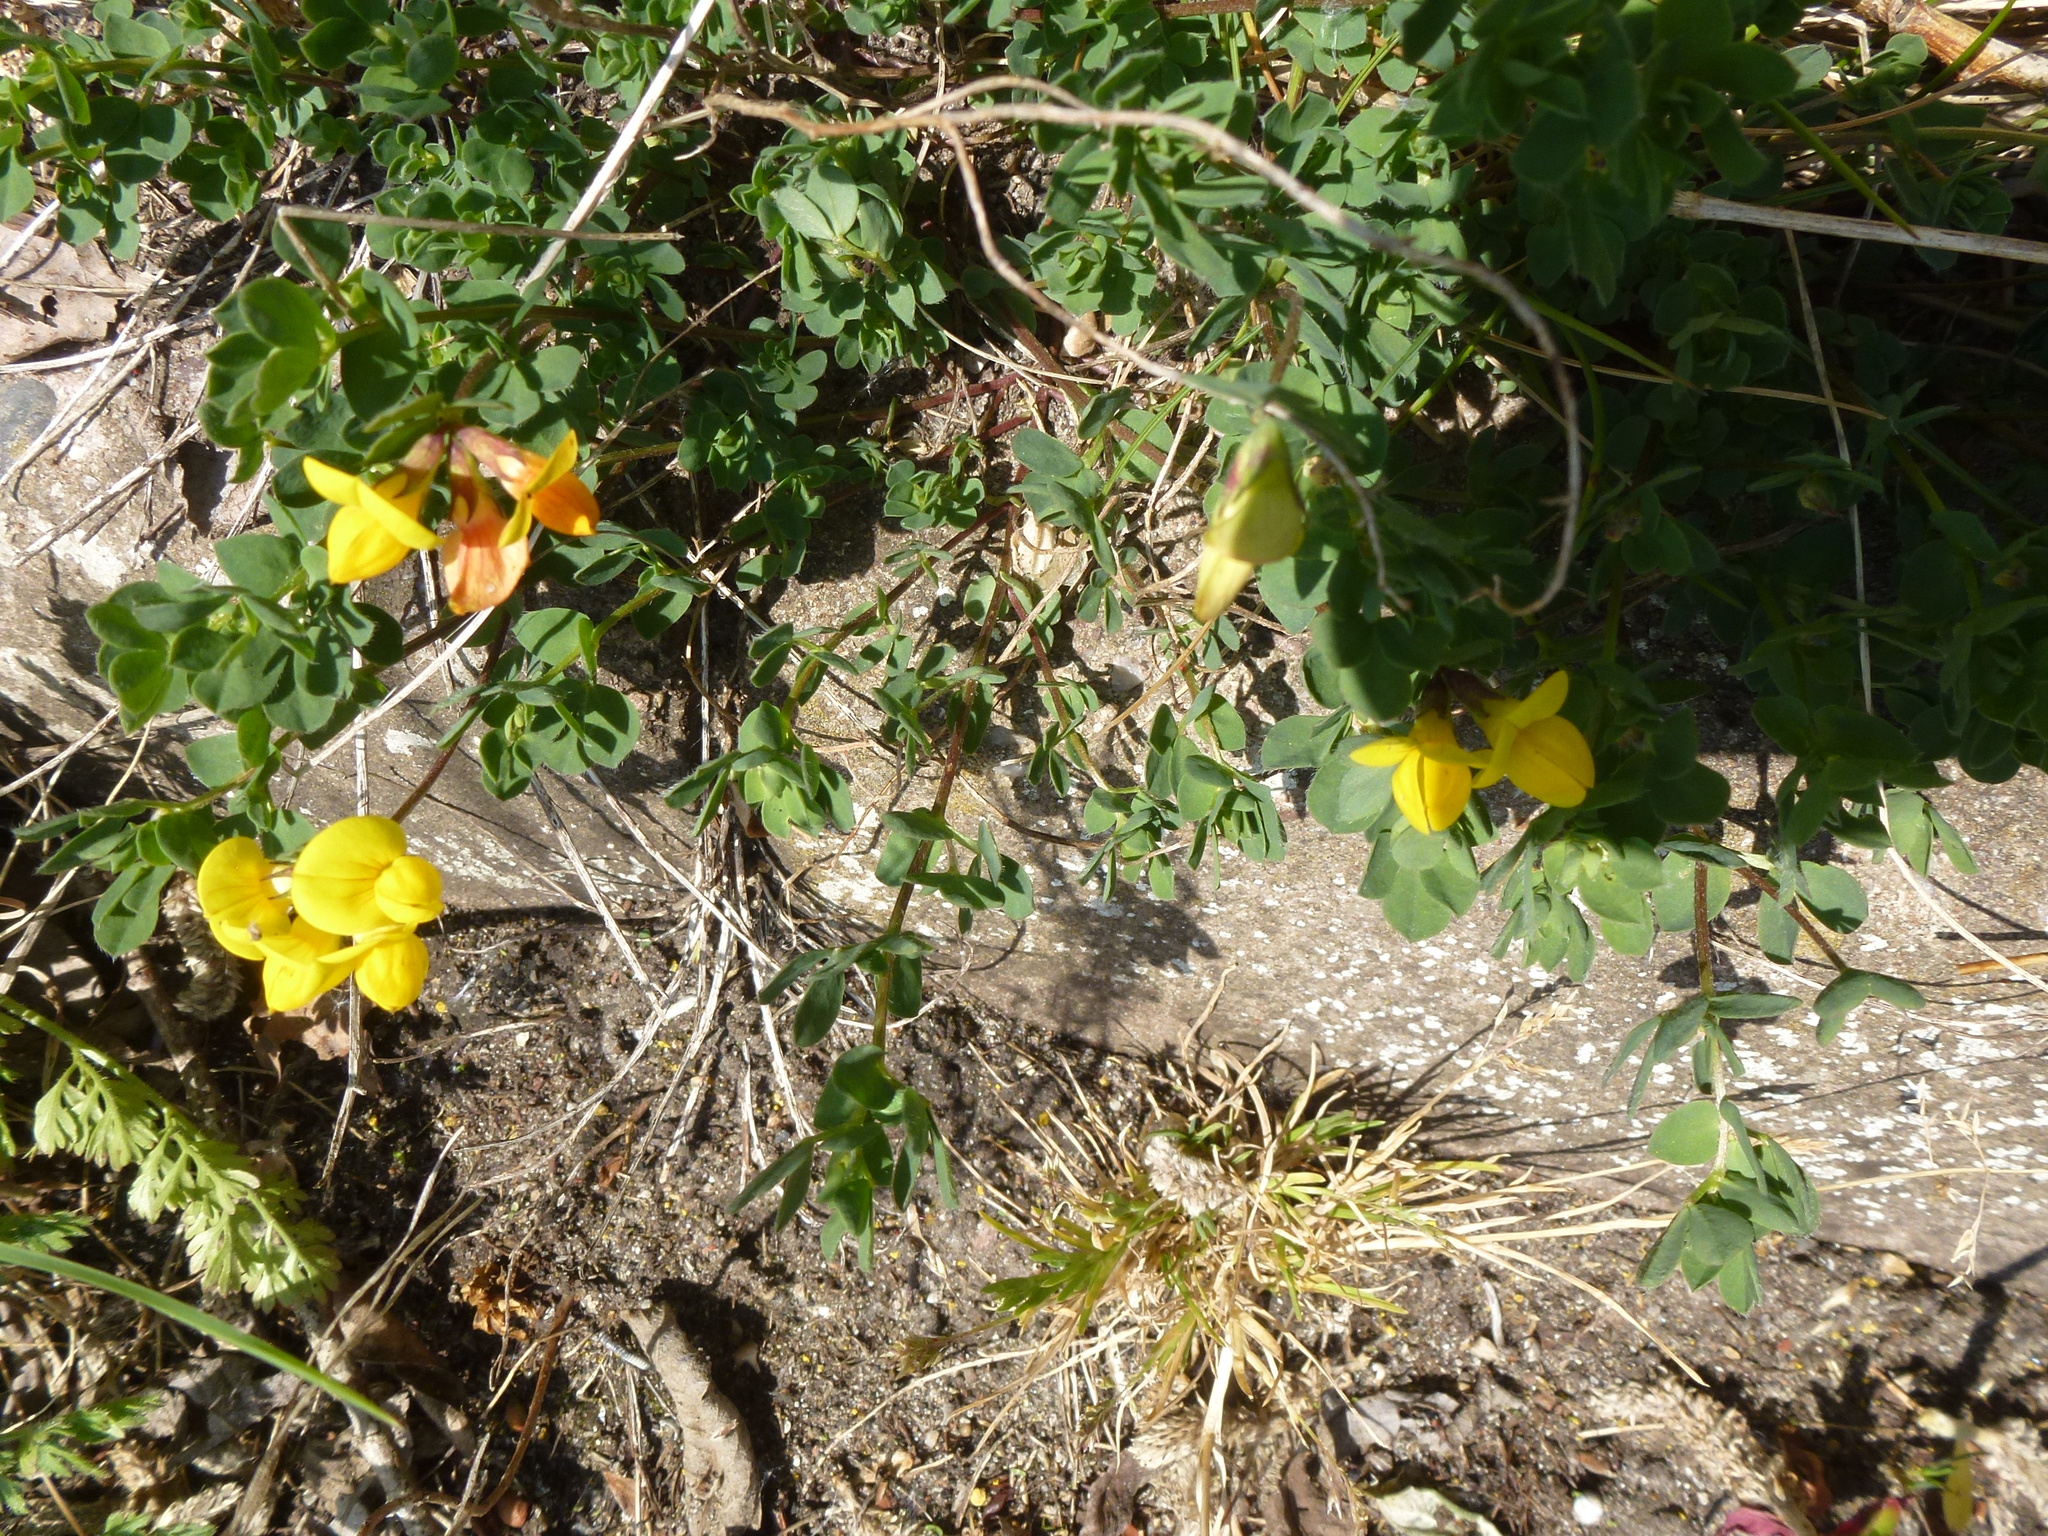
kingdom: Plantae
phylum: Tracheophyta
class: Magnoliopsida
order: Fabales
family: Fabaceae
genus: Lotus
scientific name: Lotus corniculatus
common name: Common bird's-foot-trefoil
